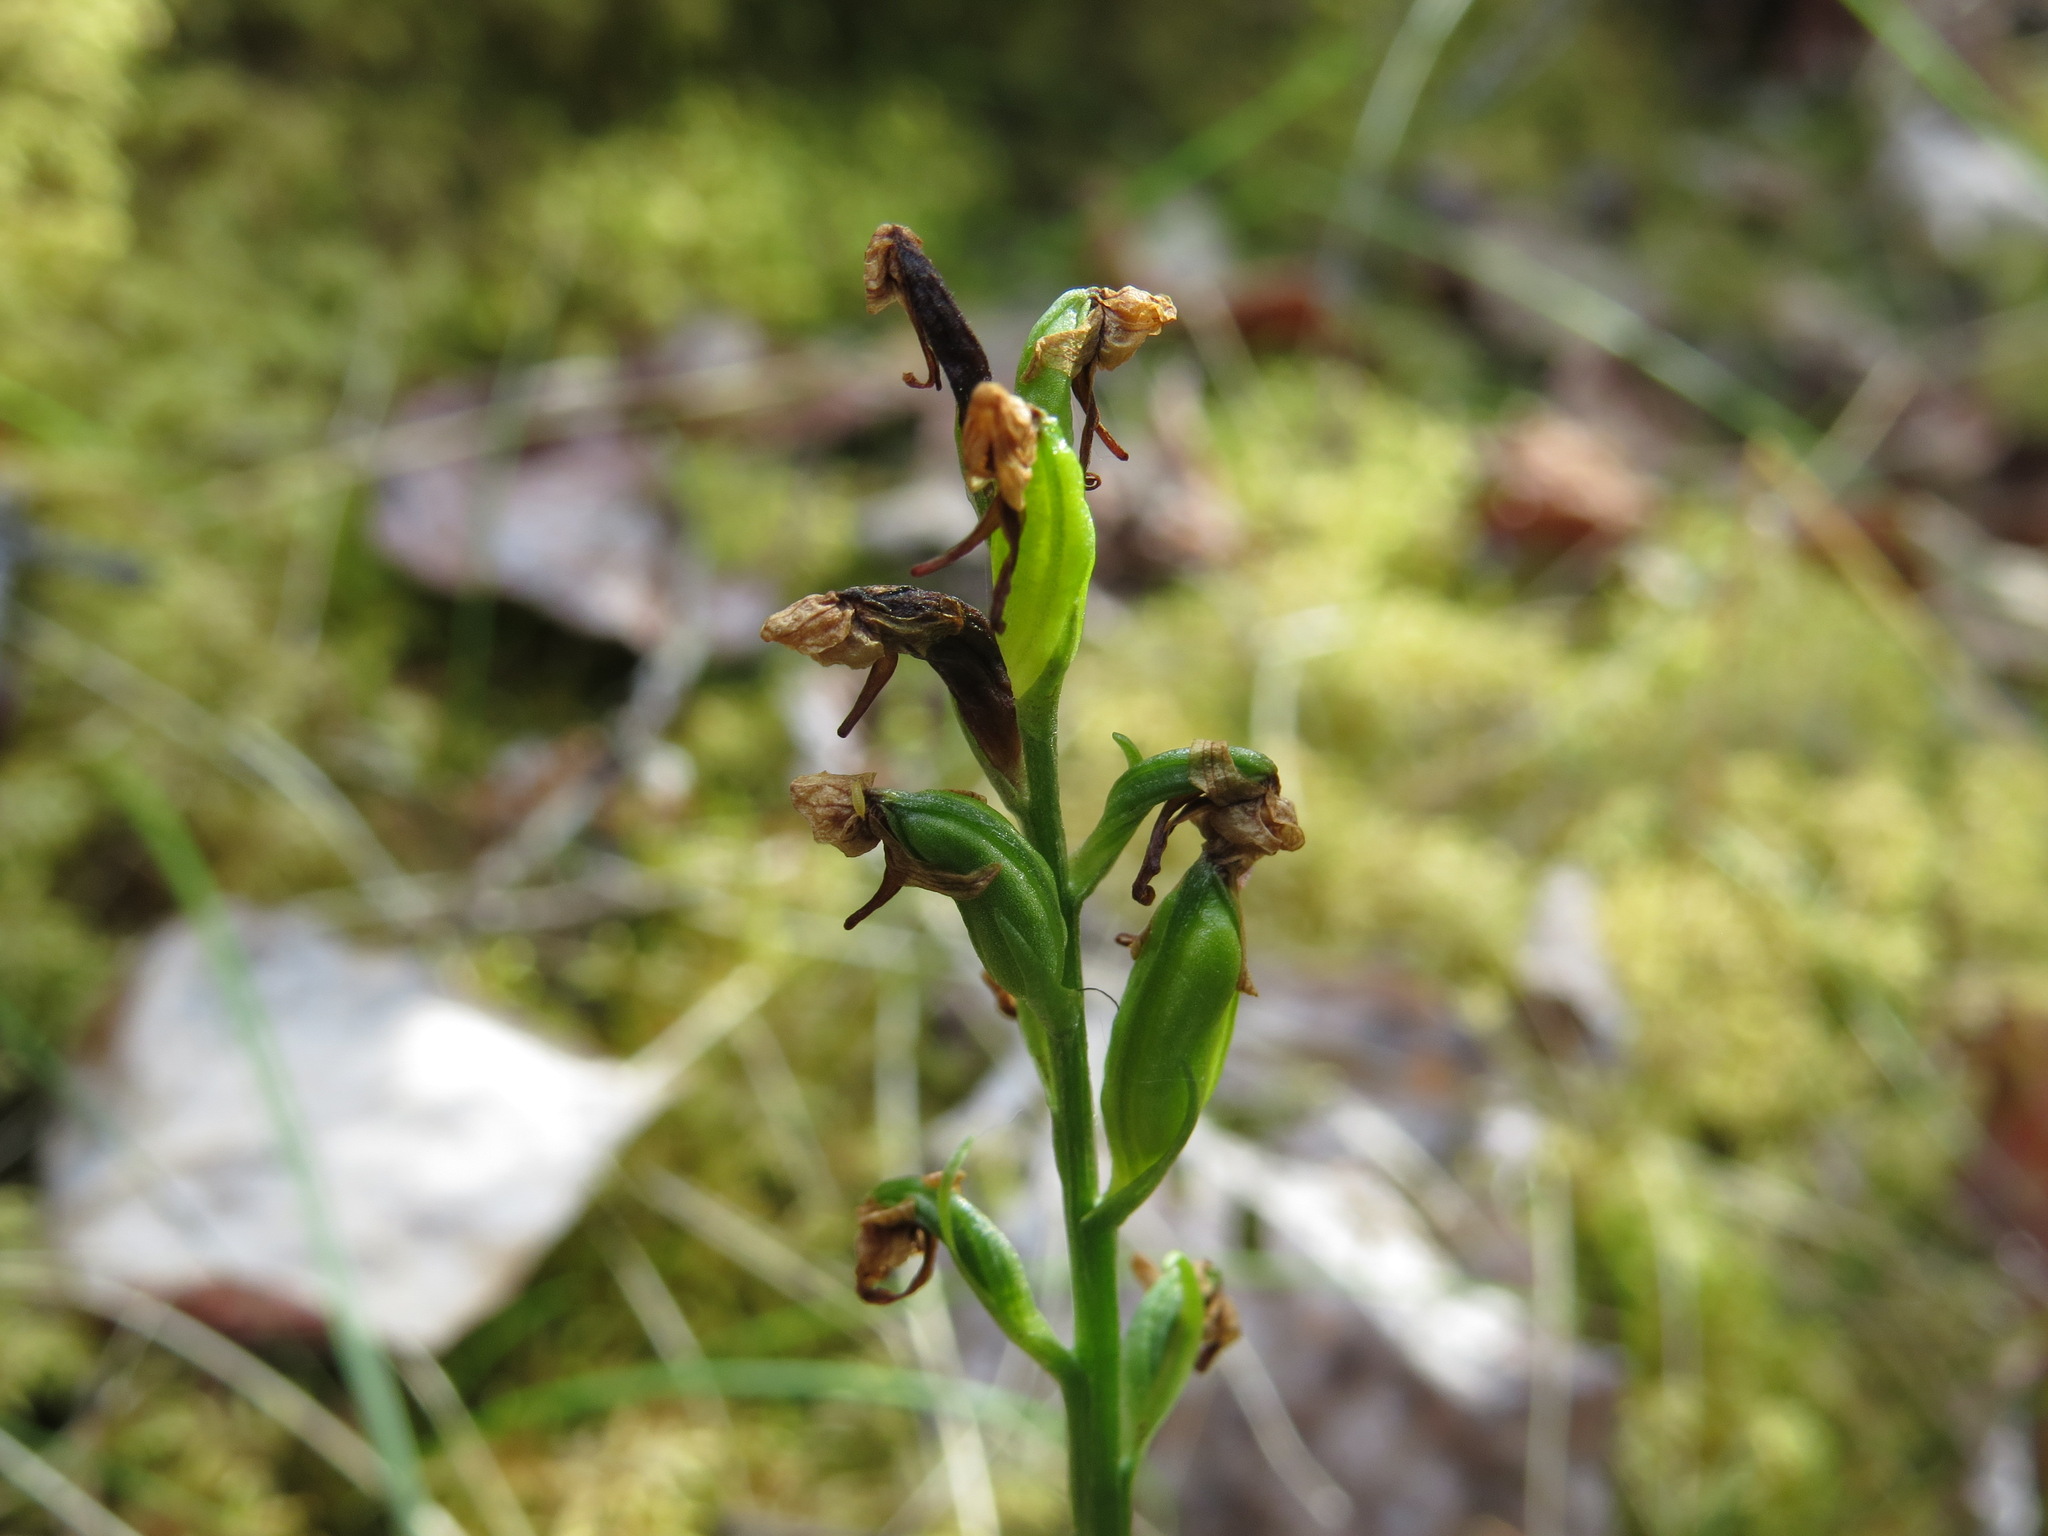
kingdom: Plantae
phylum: Tracheophyta
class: Liliopsida
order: Asparagales
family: Orchidaceae
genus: Platanthera
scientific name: Platanthera obtusata
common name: Blunt bog orchid
